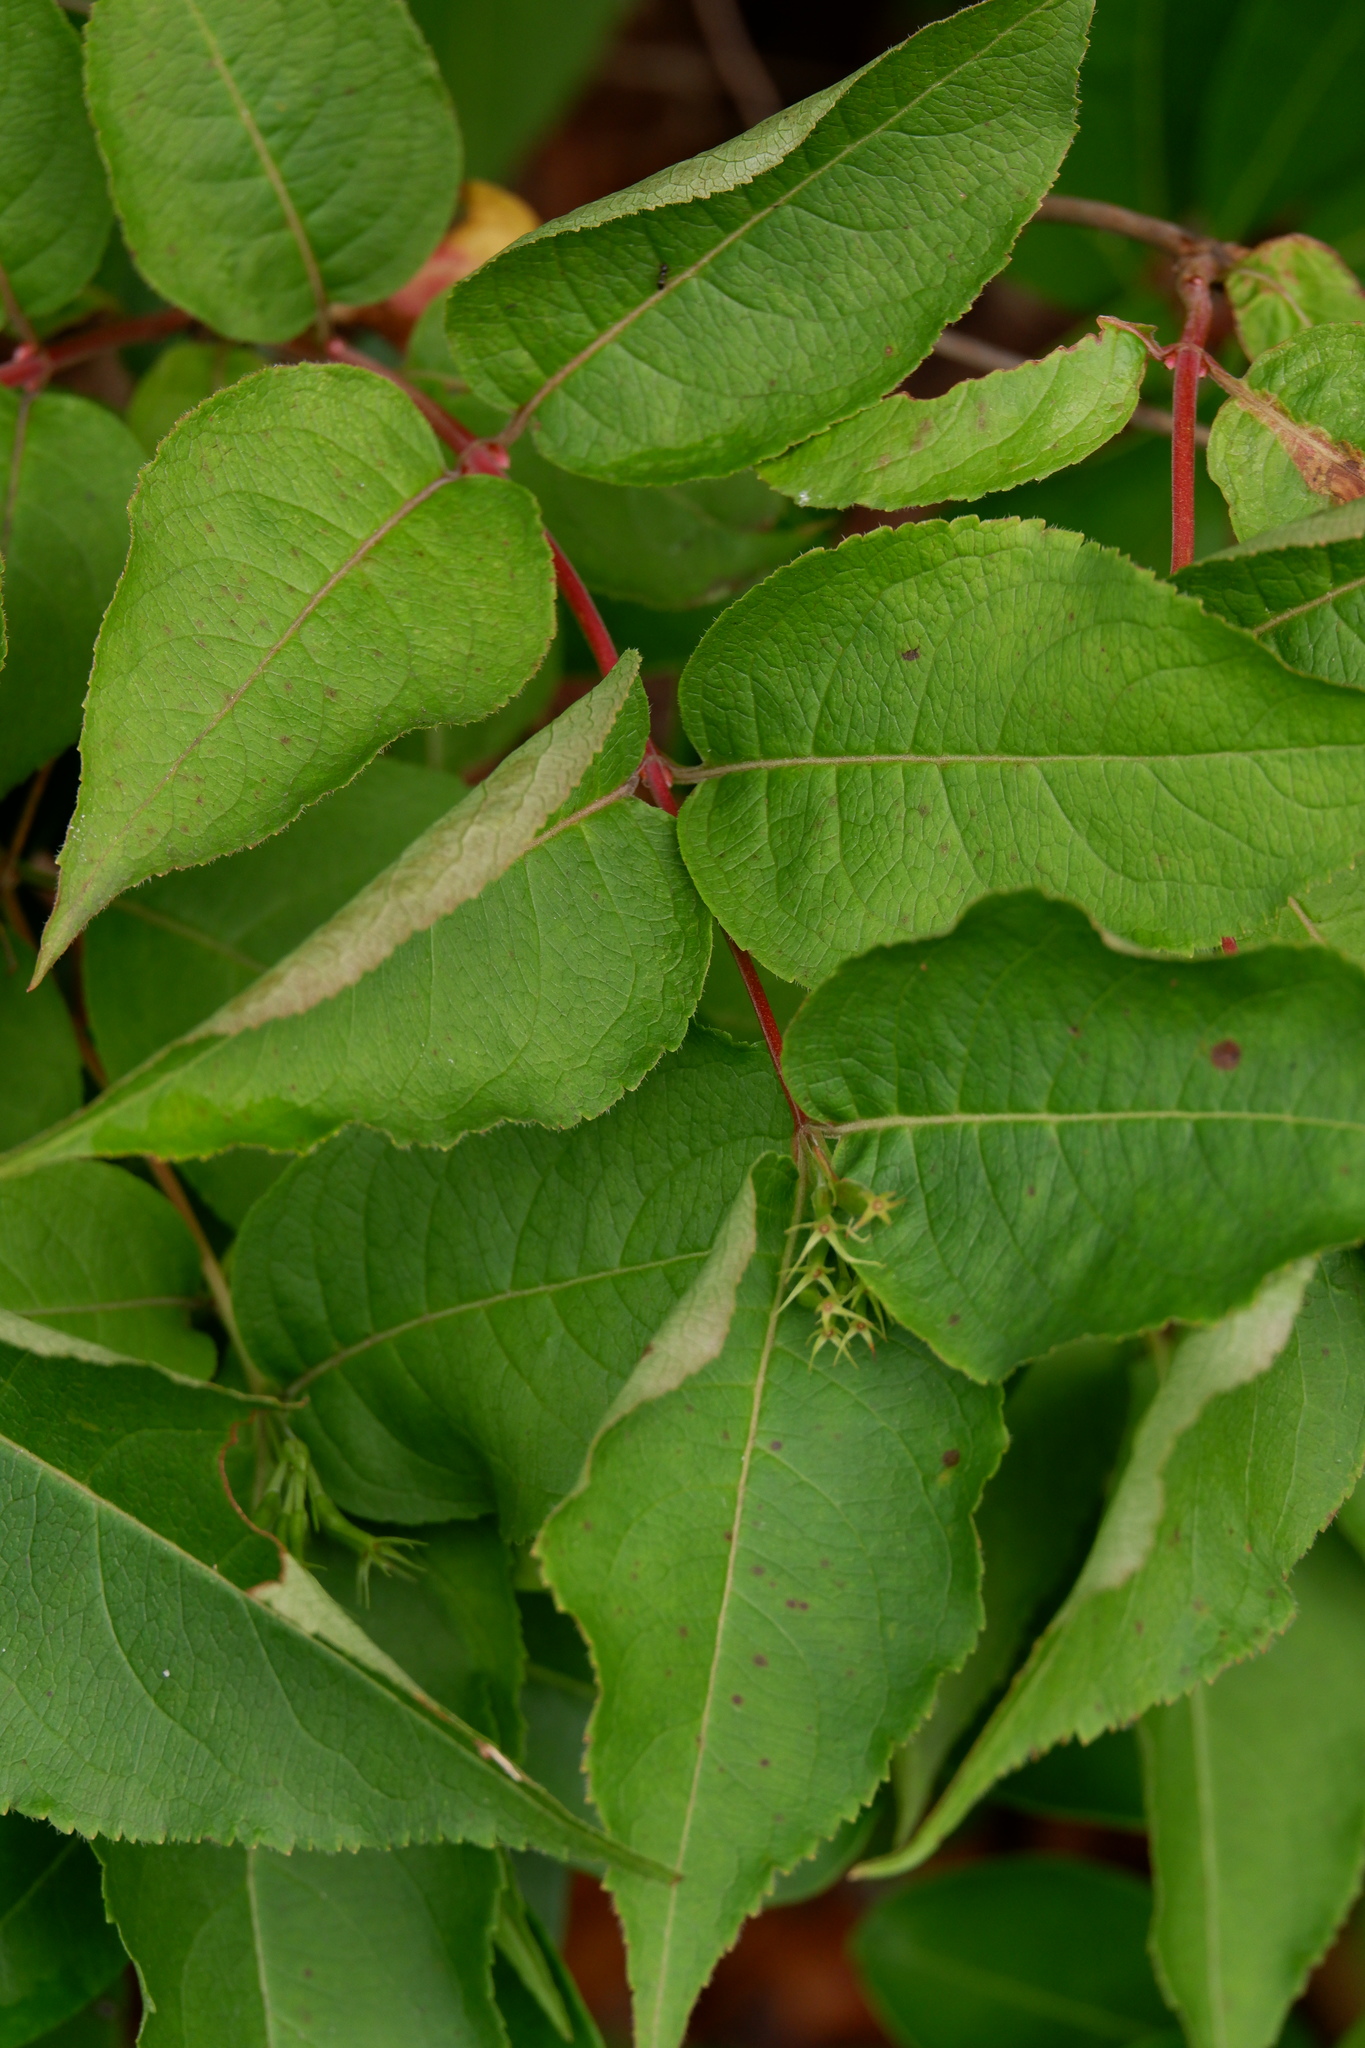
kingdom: Plantae
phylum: Tracheophyta
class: Magnoliopsida
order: Dipsacales
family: Caprifoliaceae
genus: Diervilla
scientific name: Diervilla lonicera
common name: Bush-honeysuckle
